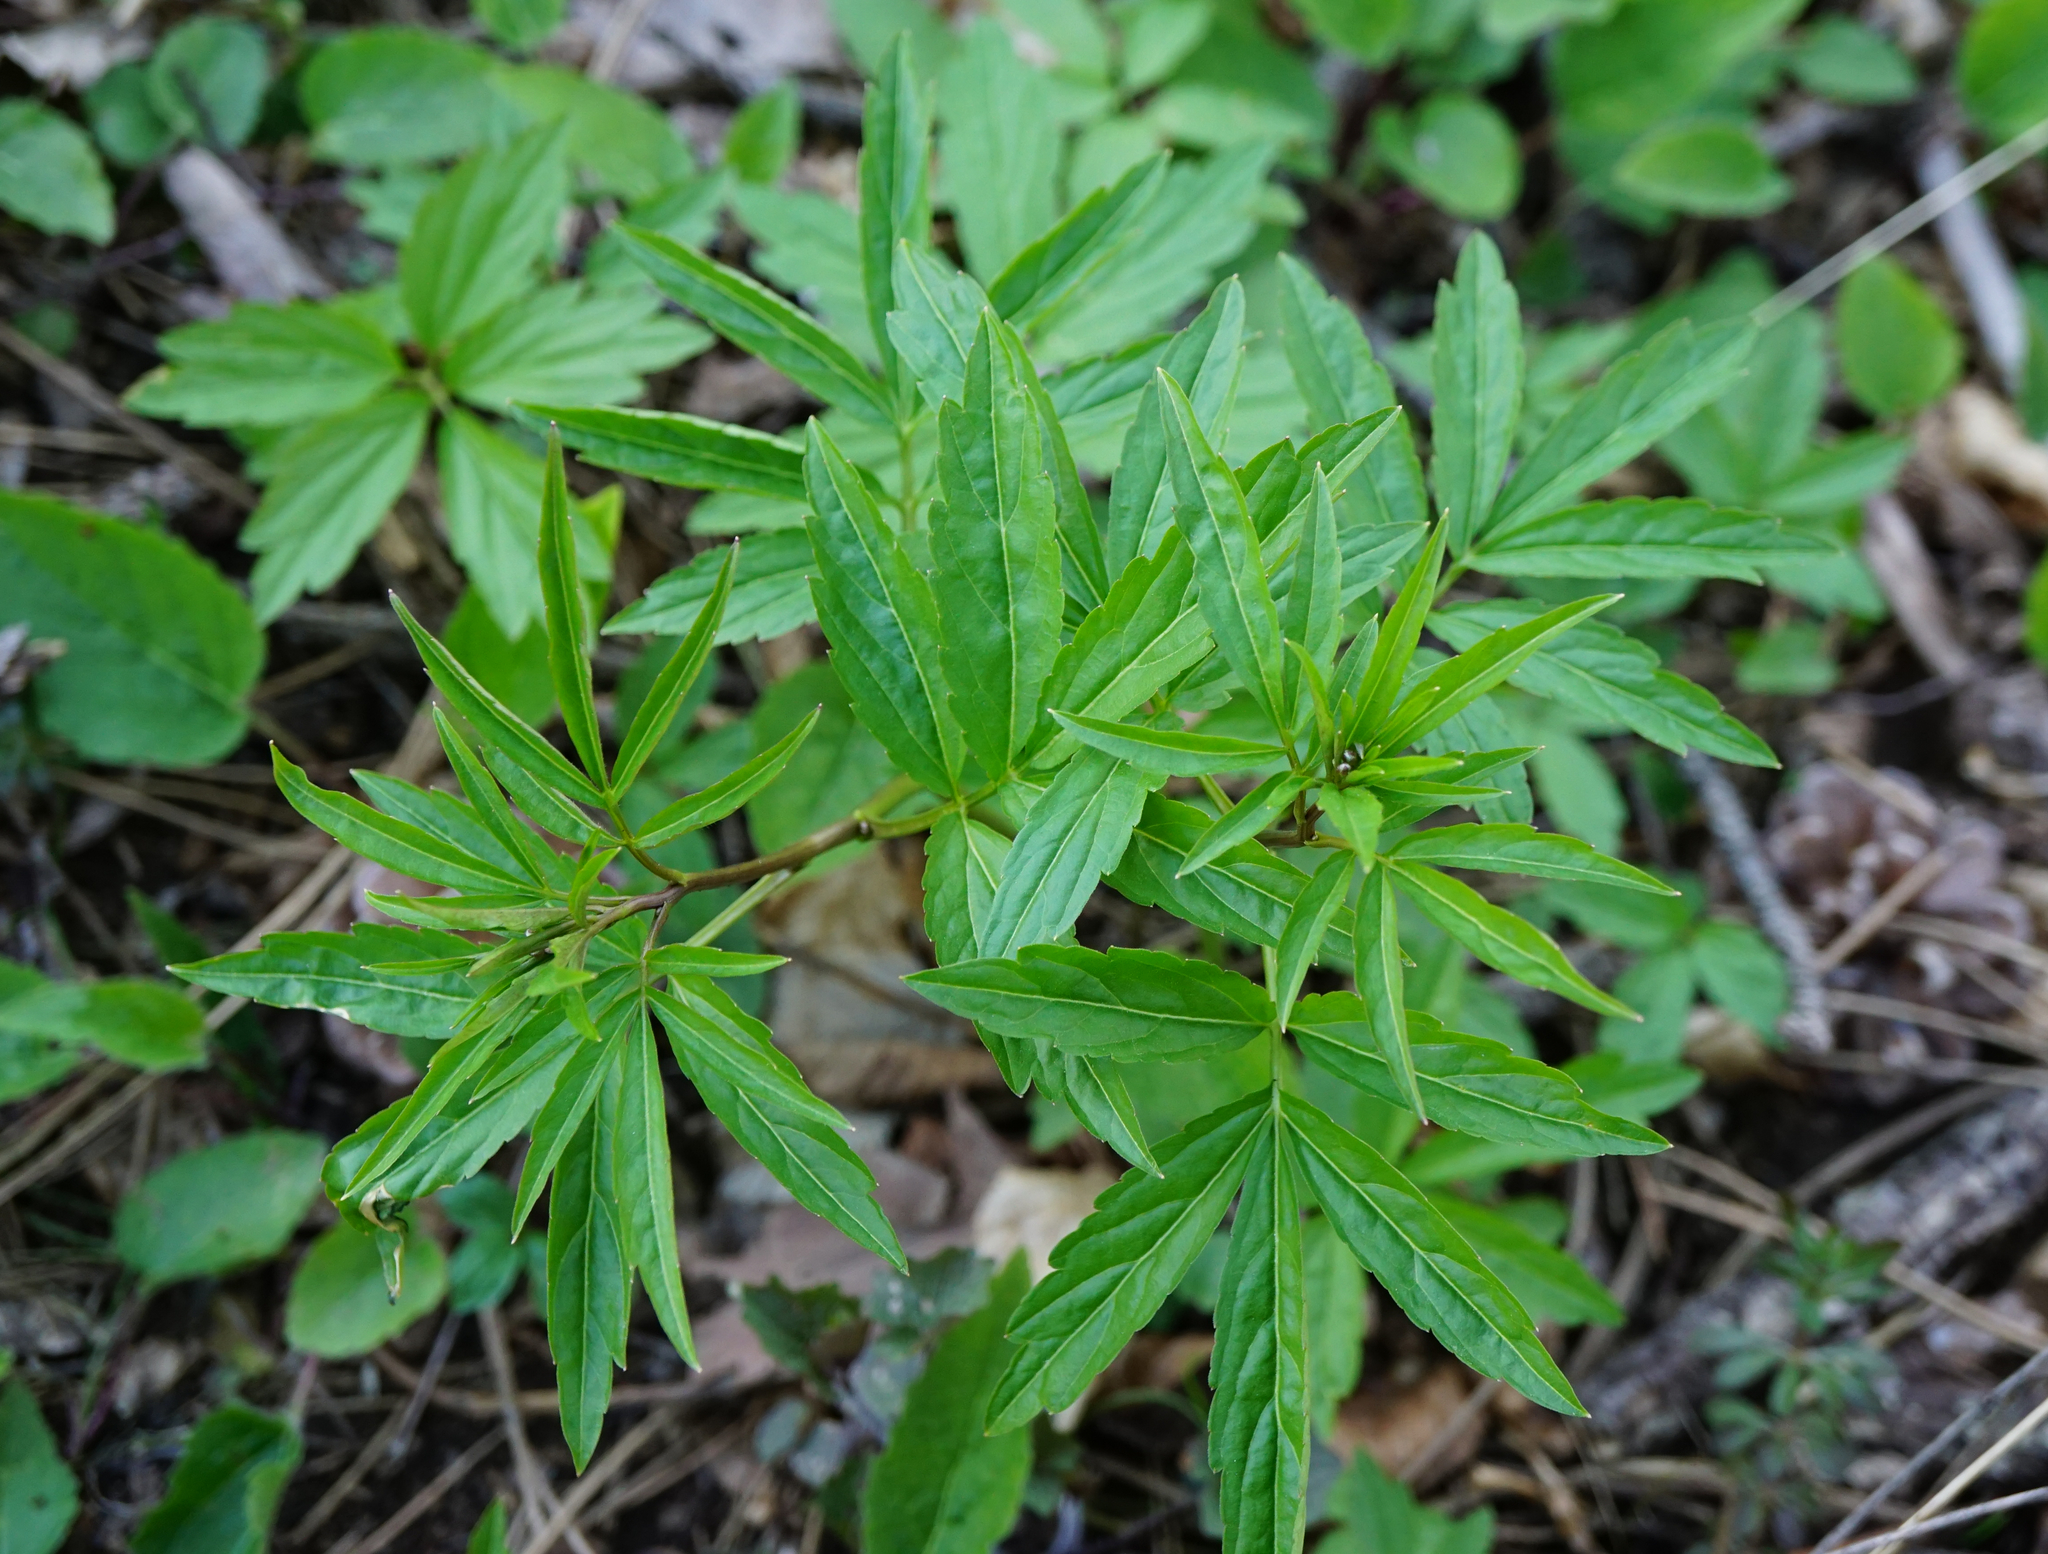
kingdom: Plantae
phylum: Tracheophyta
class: Magnoliopsida
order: Brassicales
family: Brassicaceae
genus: Cardamine
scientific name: Cardamine bulbifera
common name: Coralroot bittercress
